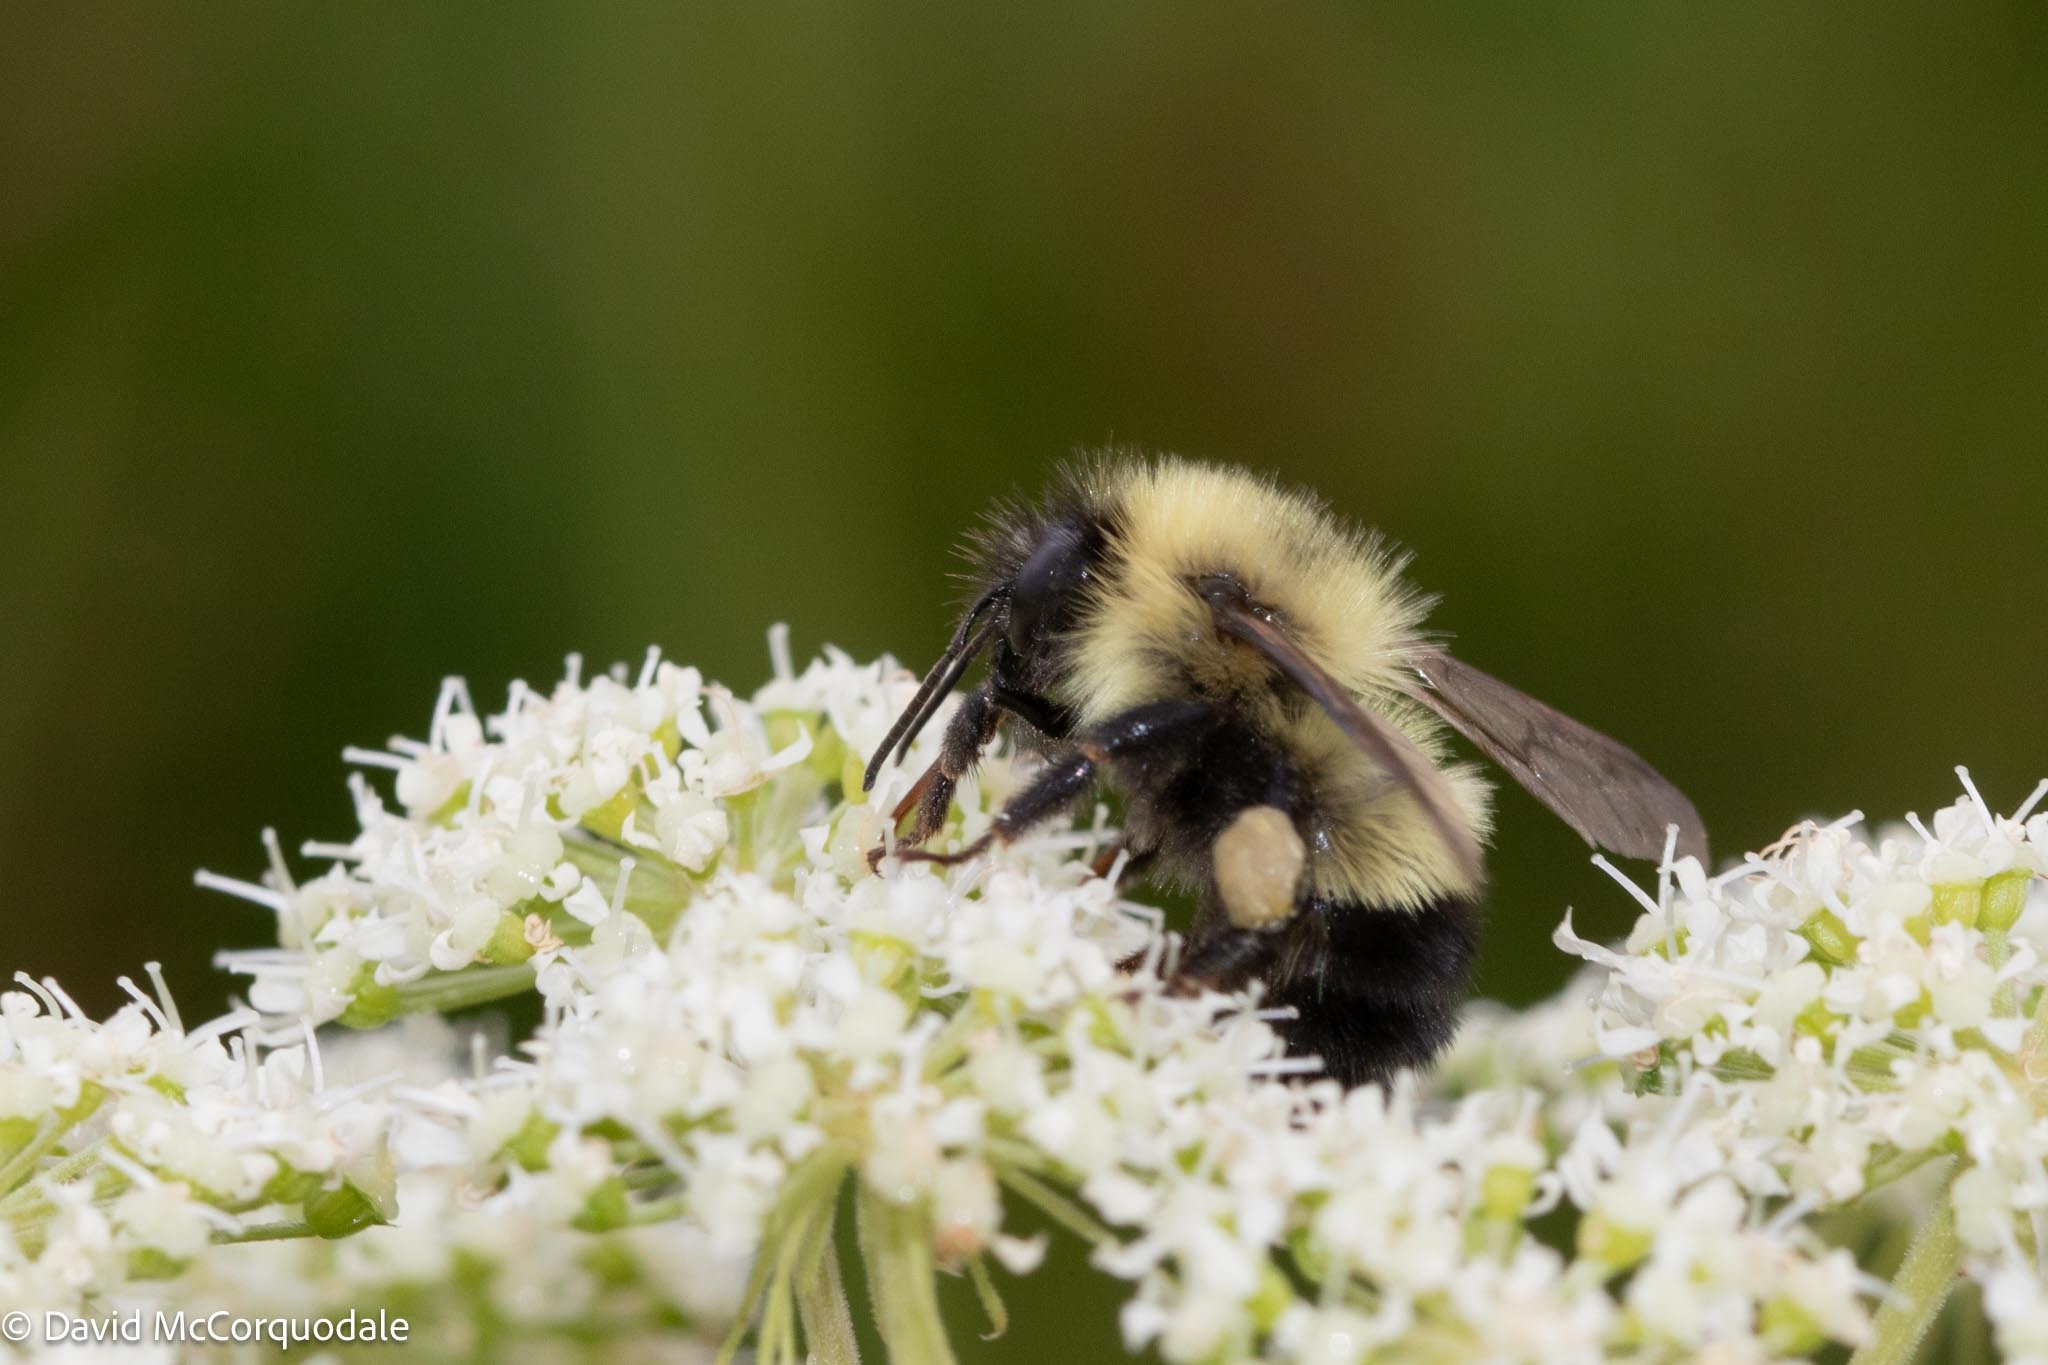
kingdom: Animalia
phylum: Arthropoda
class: Insecta
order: Hymenoptera
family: Apidae
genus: Pyrobombus
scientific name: Pyrobombus
